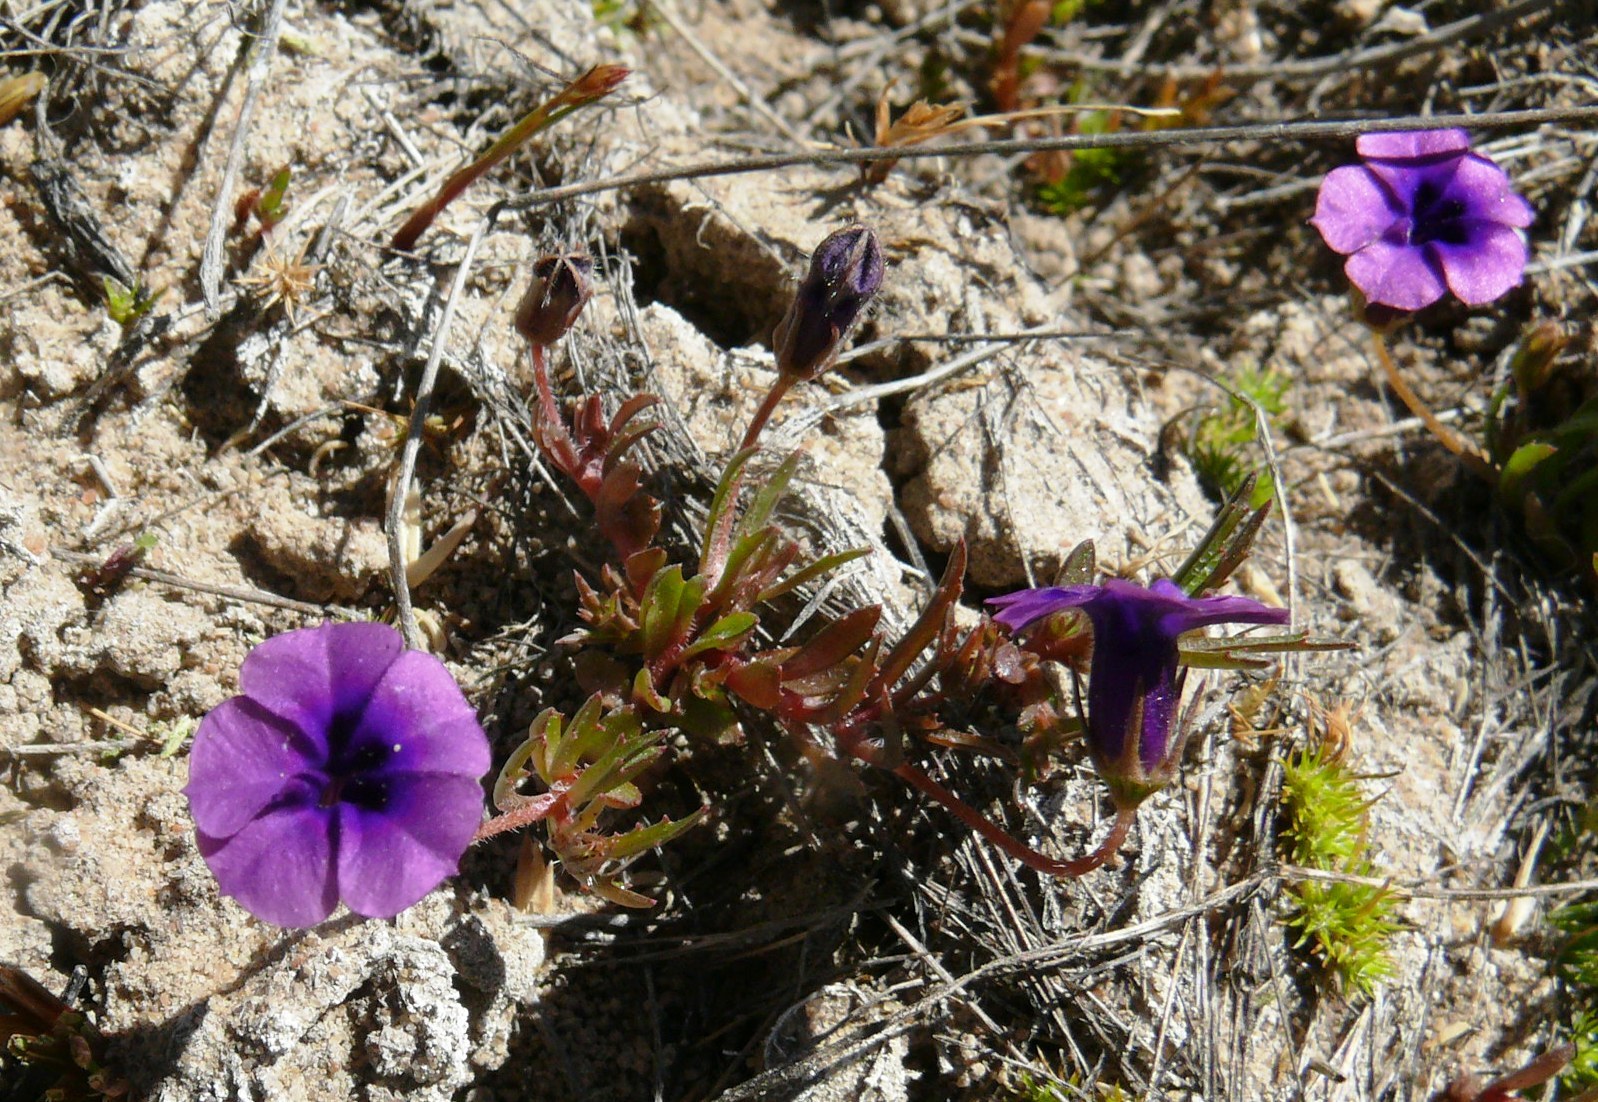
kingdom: Plantae
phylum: Tracheophyta
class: Magnoliopsida
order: Asterales
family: Campanulaceae
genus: Monopsis
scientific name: Monopsis debilis
